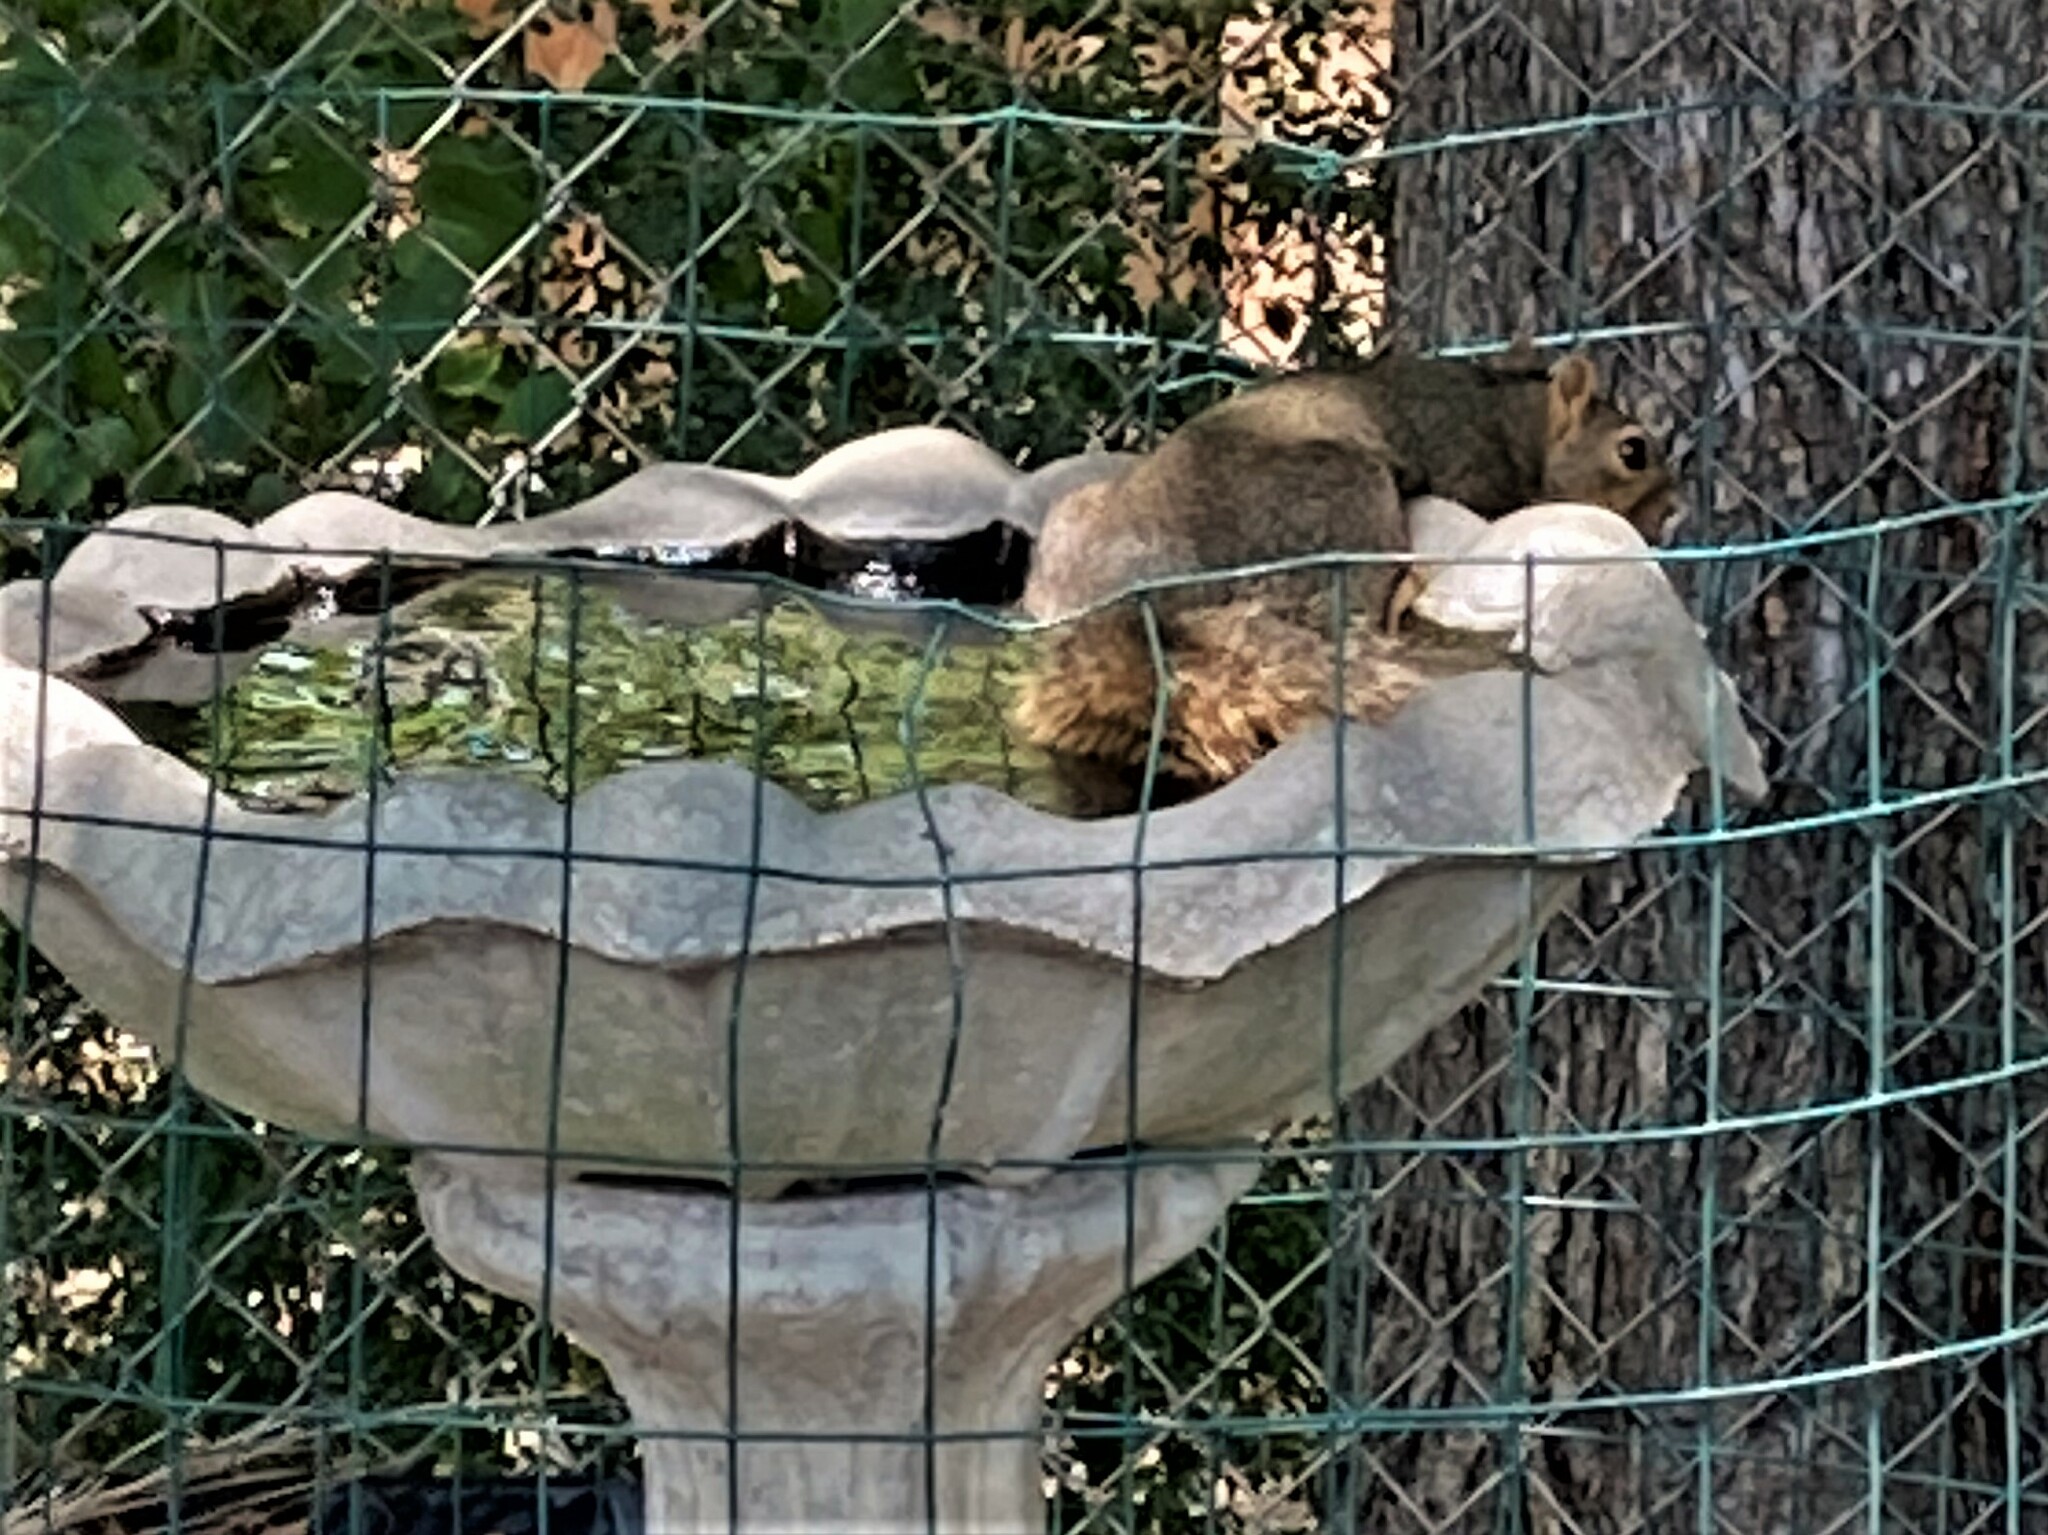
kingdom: Animalia
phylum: Chordata
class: Mammalia
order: Rodentia
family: Sciuridae
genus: Sciurus
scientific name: Sciurus niger
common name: Fox squirrel
